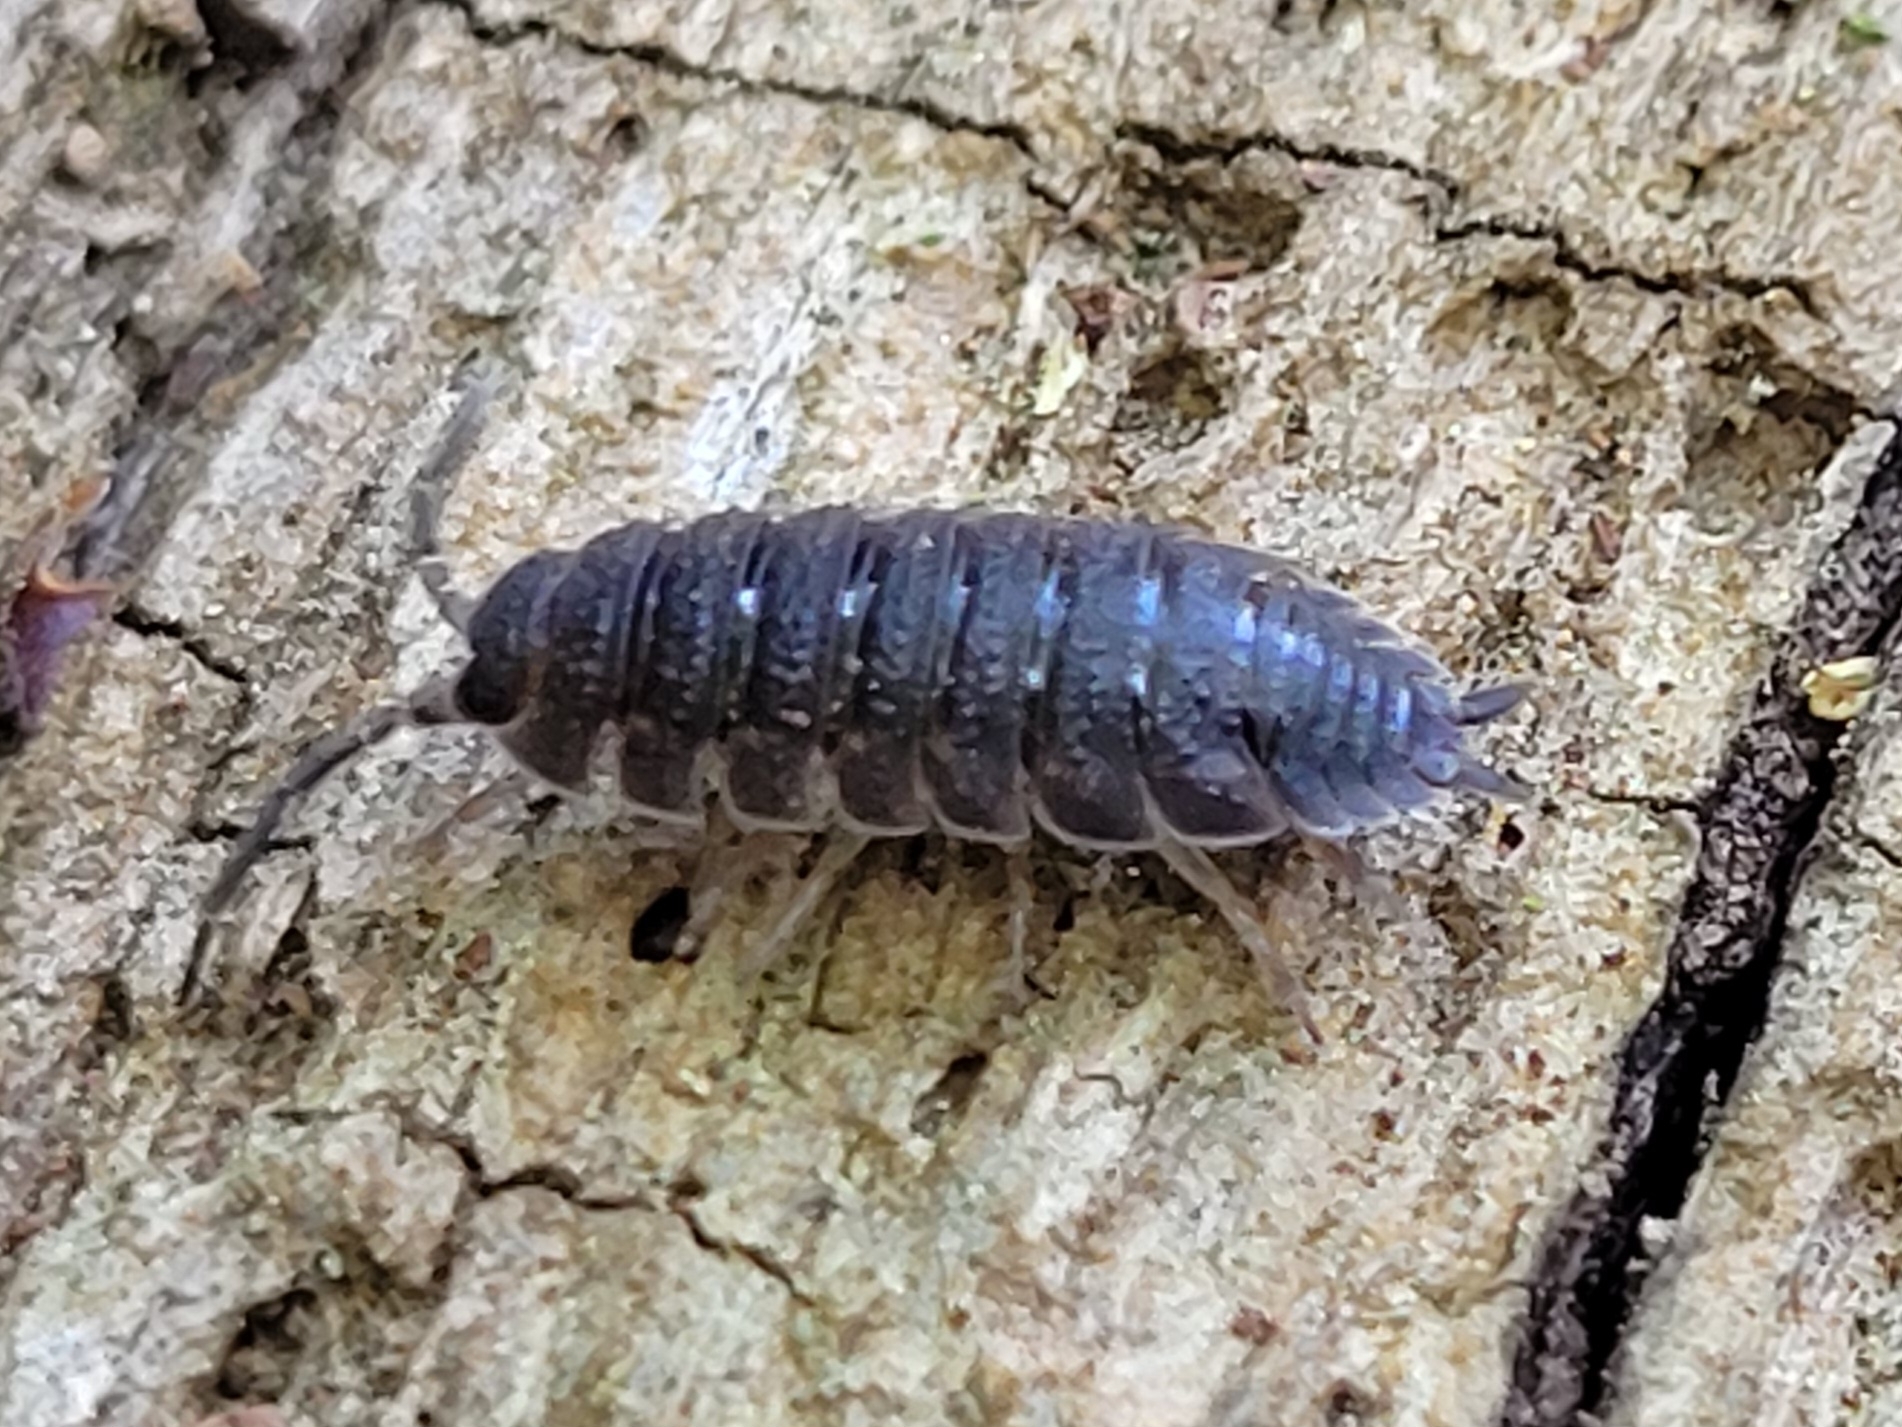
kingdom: Animalia
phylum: Arthropoda
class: Malacostraca
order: Isopoda
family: Porcellionidae
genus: Porcellio
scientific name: Porcellio scaber
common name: Common rough woodlouse
